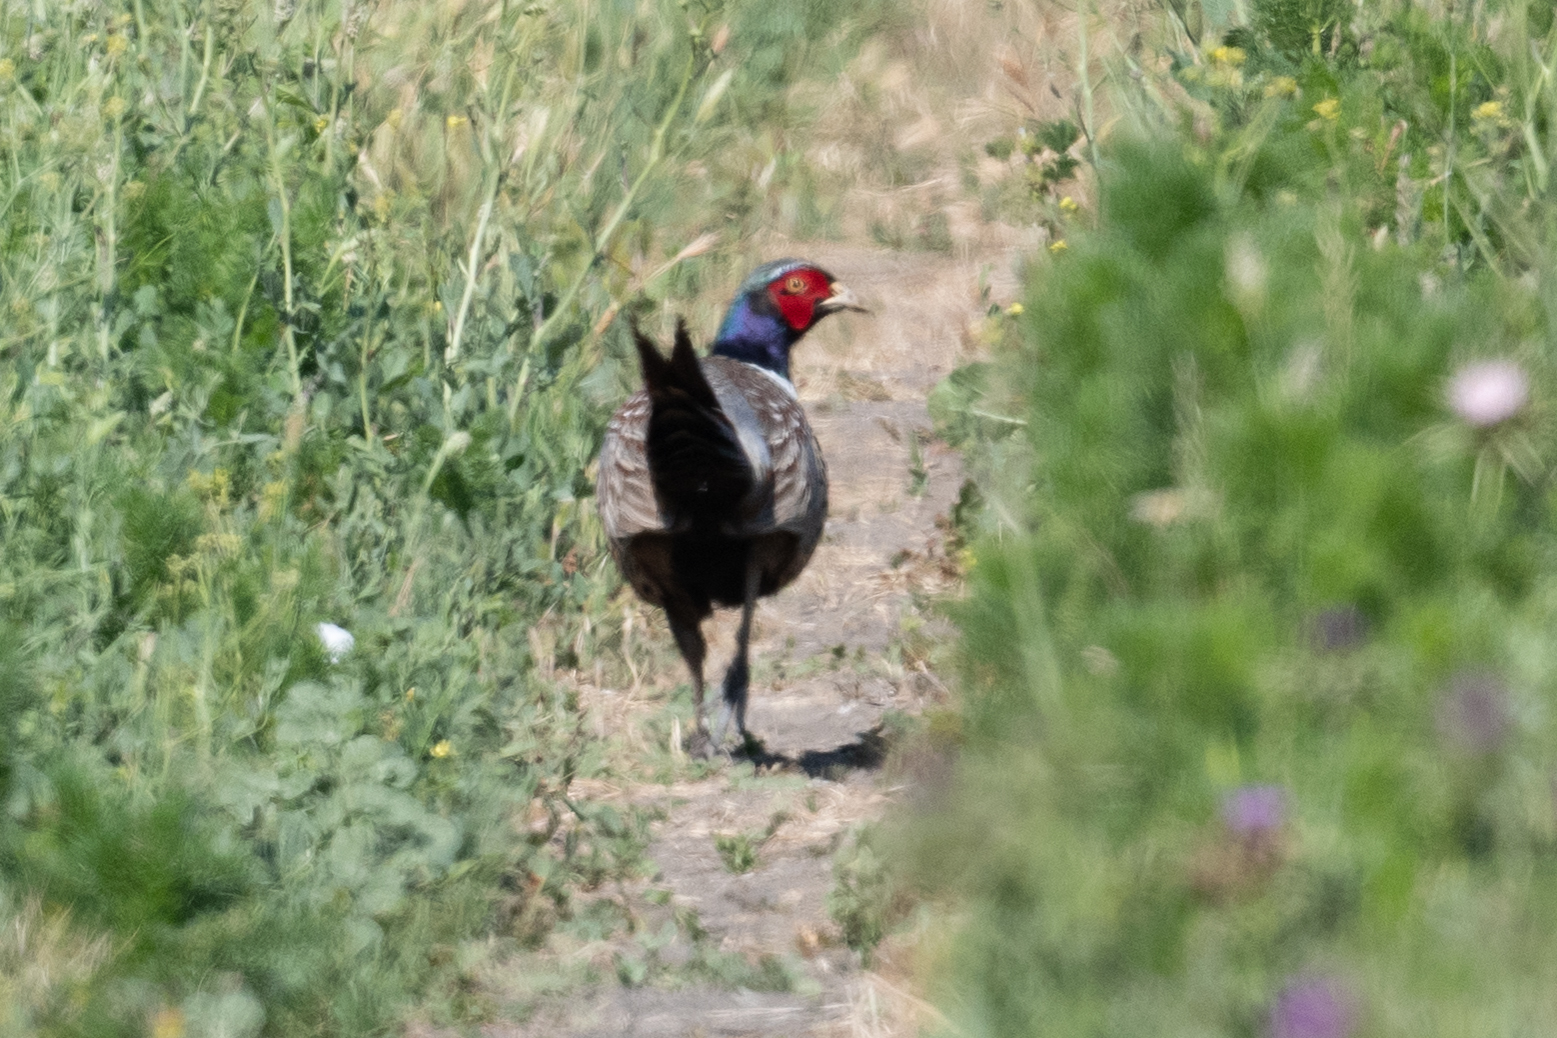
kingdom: Animalia
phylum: Chordata
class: Aves
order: Galliformes
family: Phasianidae
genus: Phasianus
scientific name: Phasianus colchicus
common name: Common pheasant
